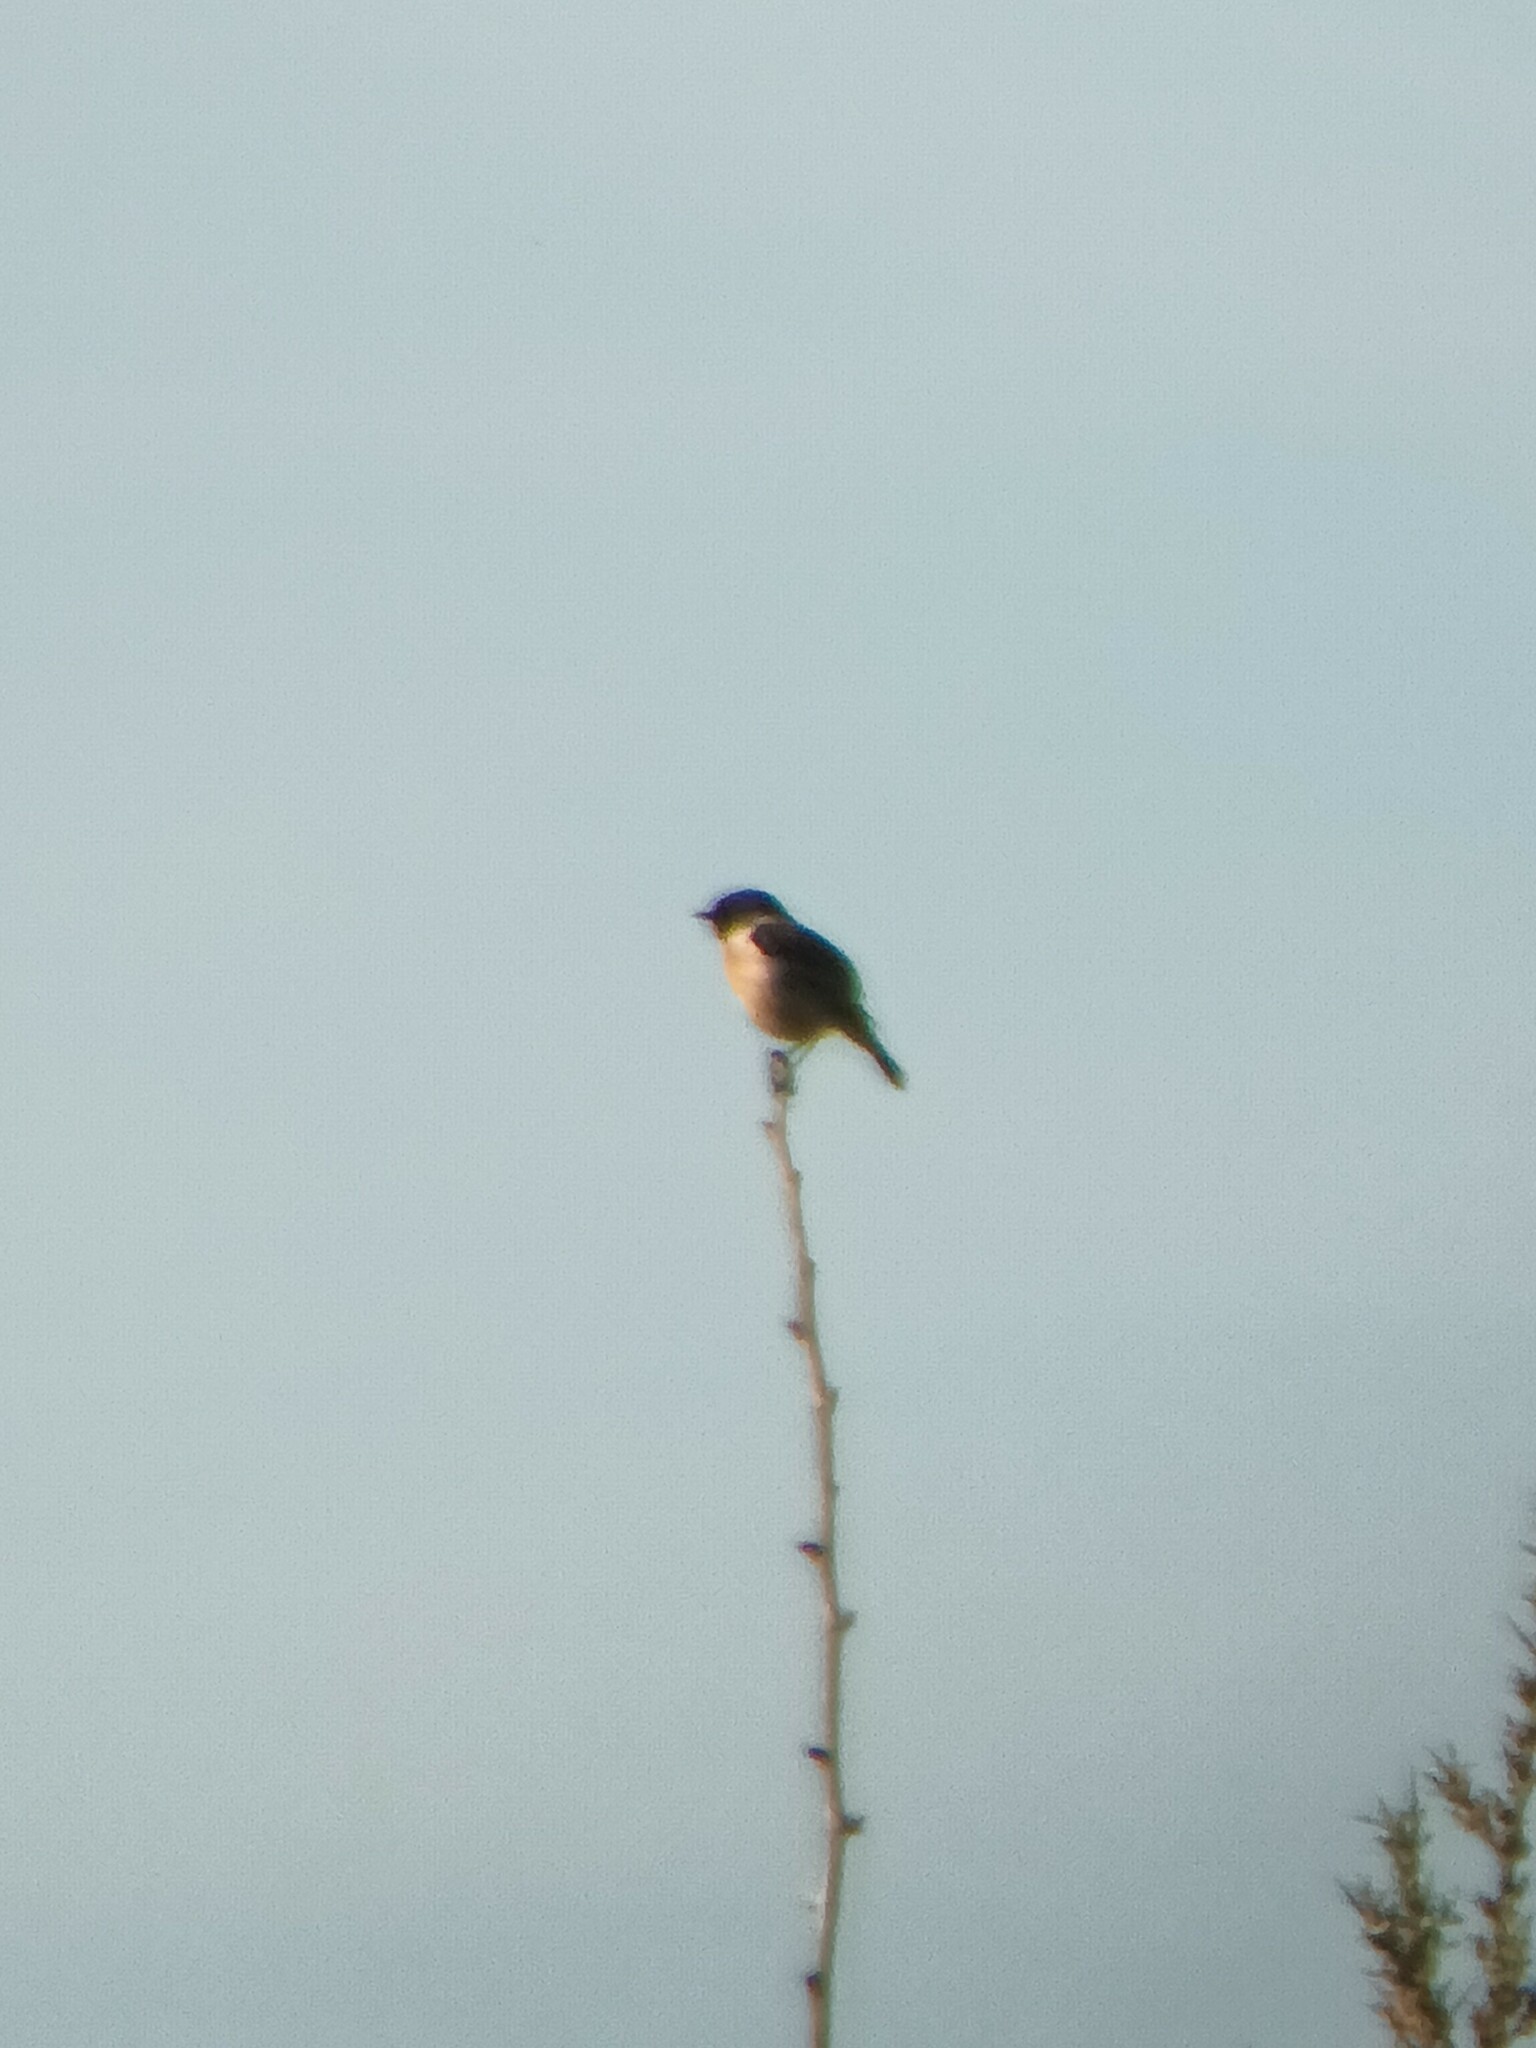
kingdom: Animalia
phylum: Chordata
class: Aves
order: Passeriformes
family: Muscicapidae
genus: Saxicola
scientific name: Saxicola rubicola
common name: European stonechat
